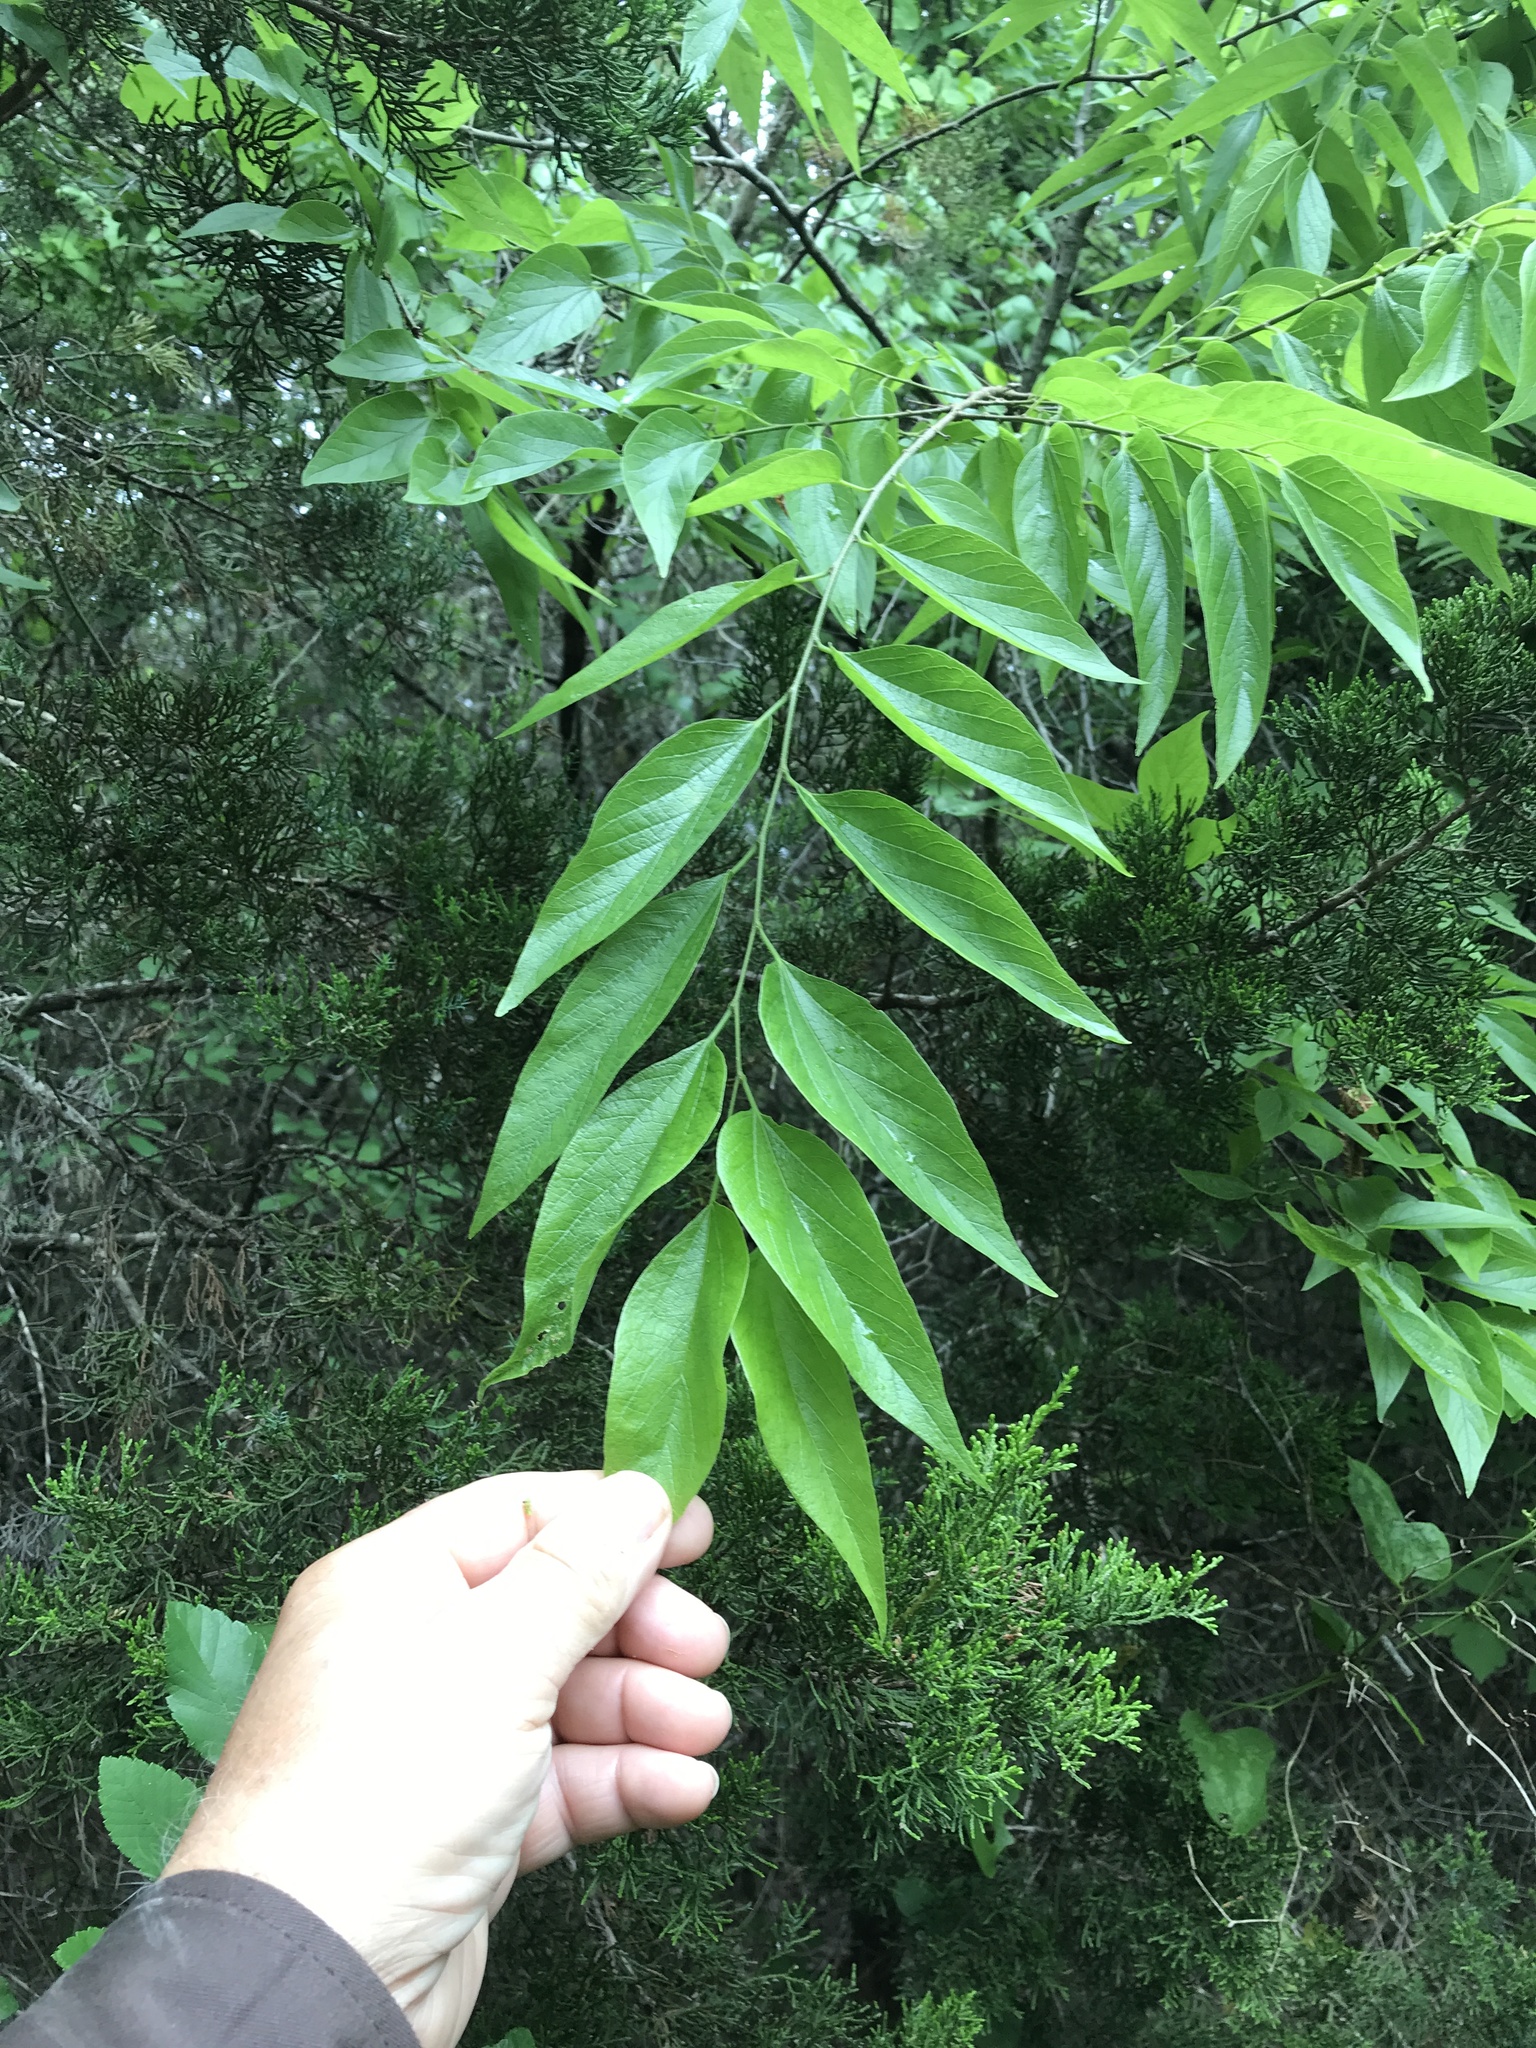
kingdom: Plantae
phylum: Tracheophyta
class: Magnoliopsida
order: Rosales
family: Cannabaceae
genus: Celtis
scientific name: Celtis laevigata
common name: Sugarberry
